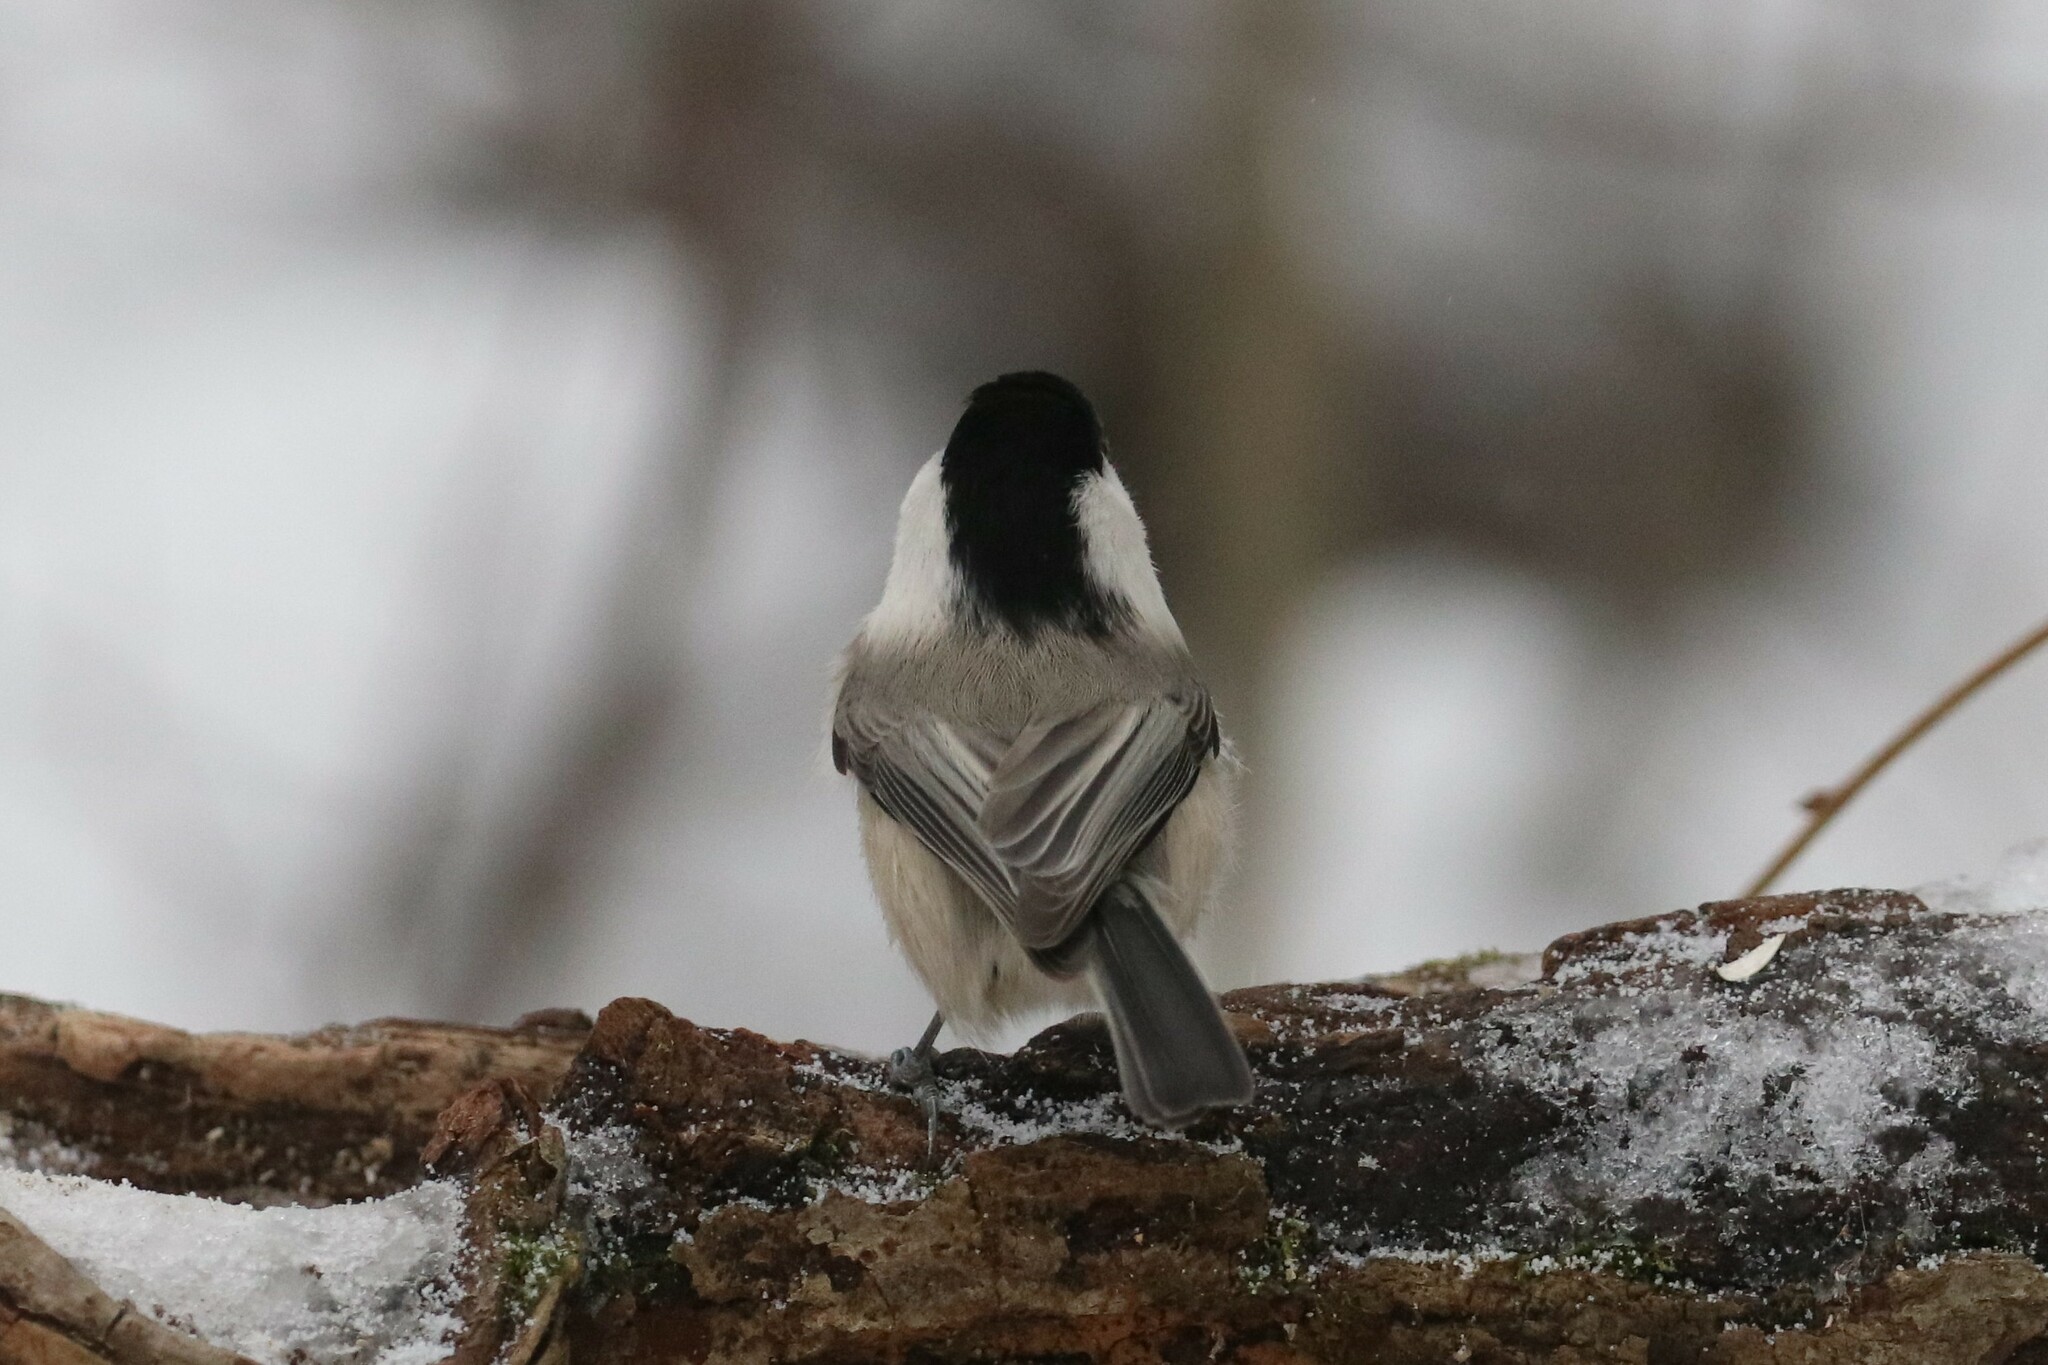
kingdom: Animalia
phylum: Chordata
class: Aves
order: Passeriformes
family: Paridae
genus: Poecile
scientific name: Poecile montanus
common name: Willow tit
